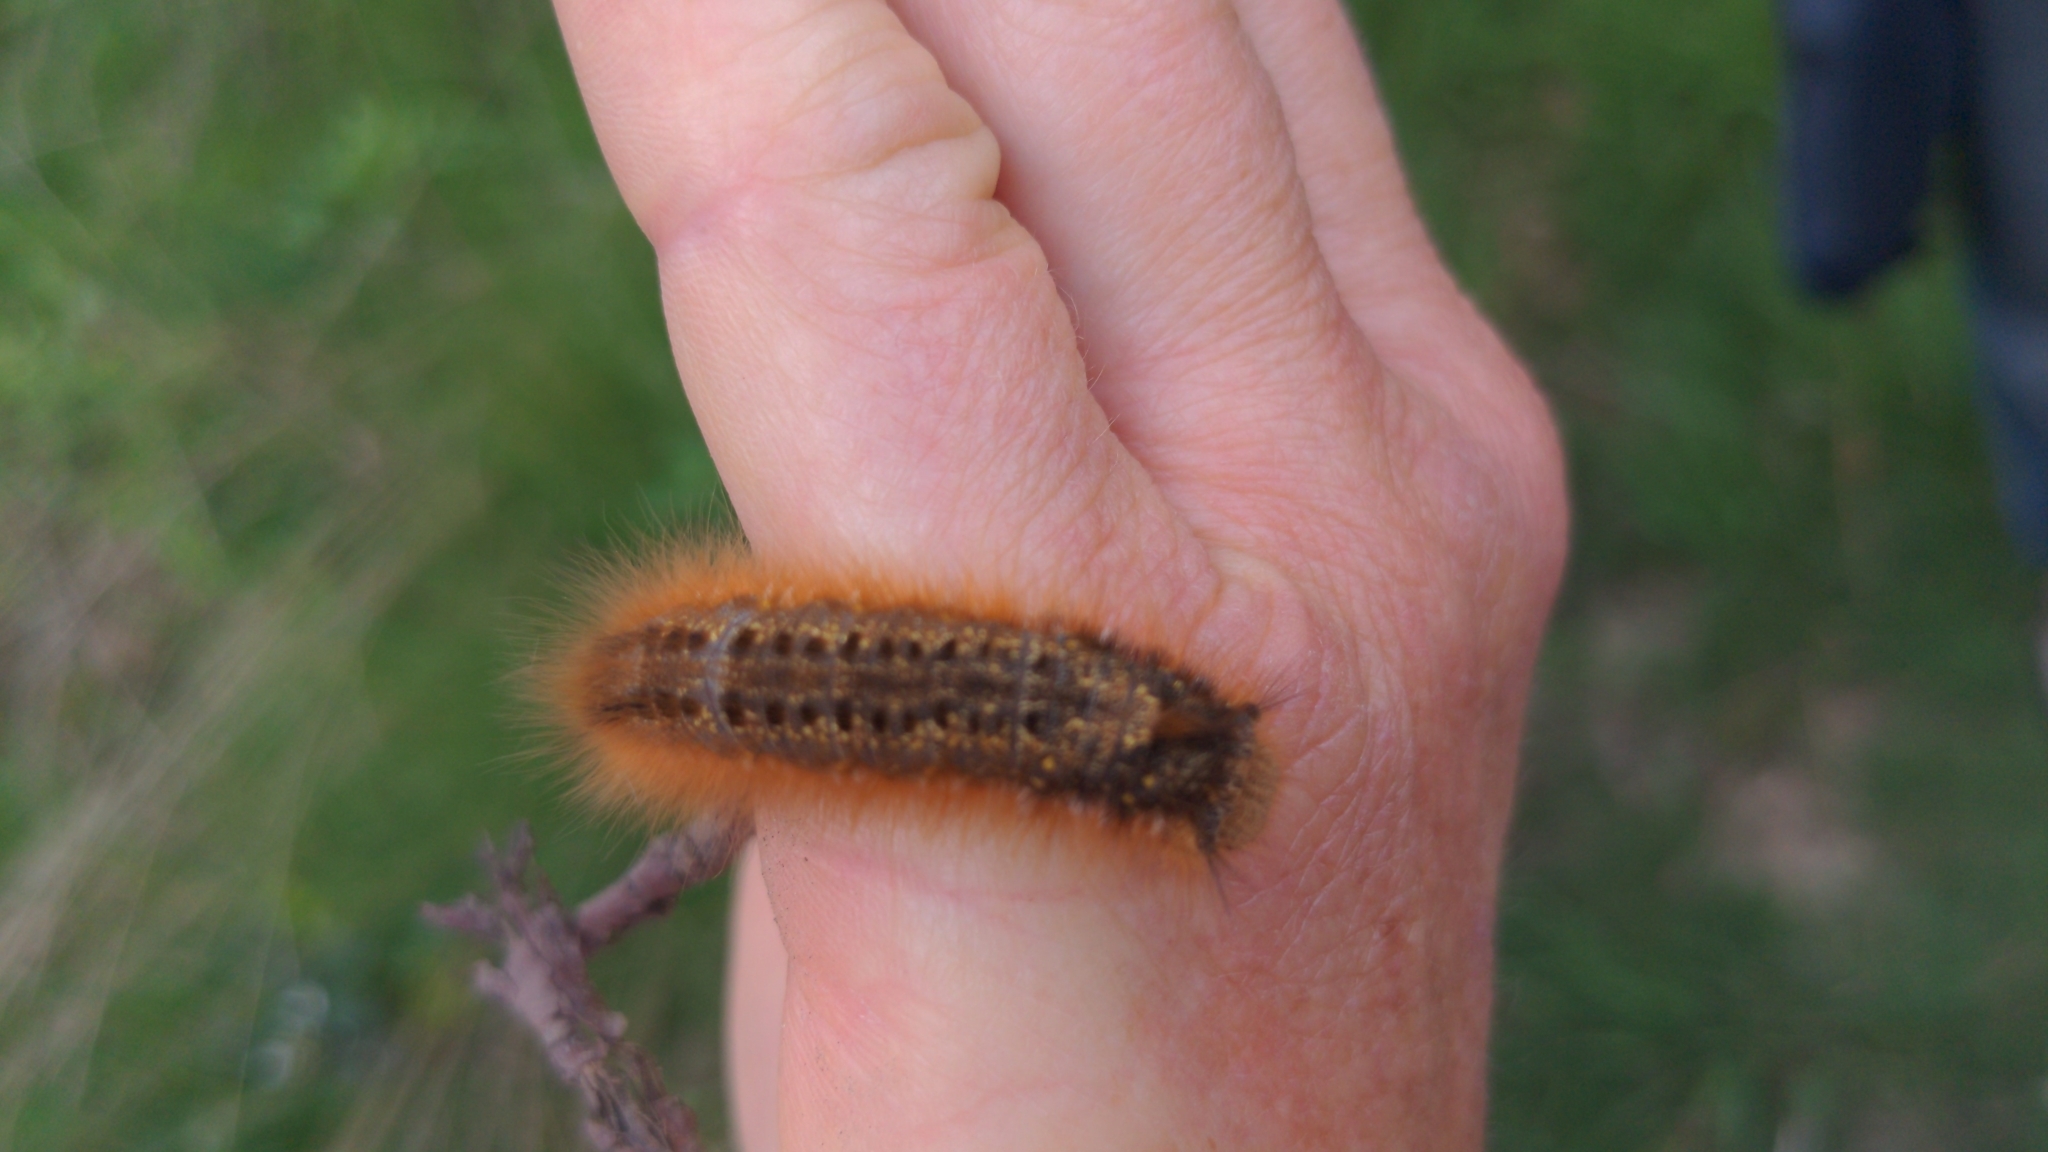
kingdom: Animalia
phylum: Arthropoda
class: Insecta
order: Lepidoptera
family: Lasiocampidae
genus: Euthrix
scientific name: Euthrix potatoria
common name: Drinker
